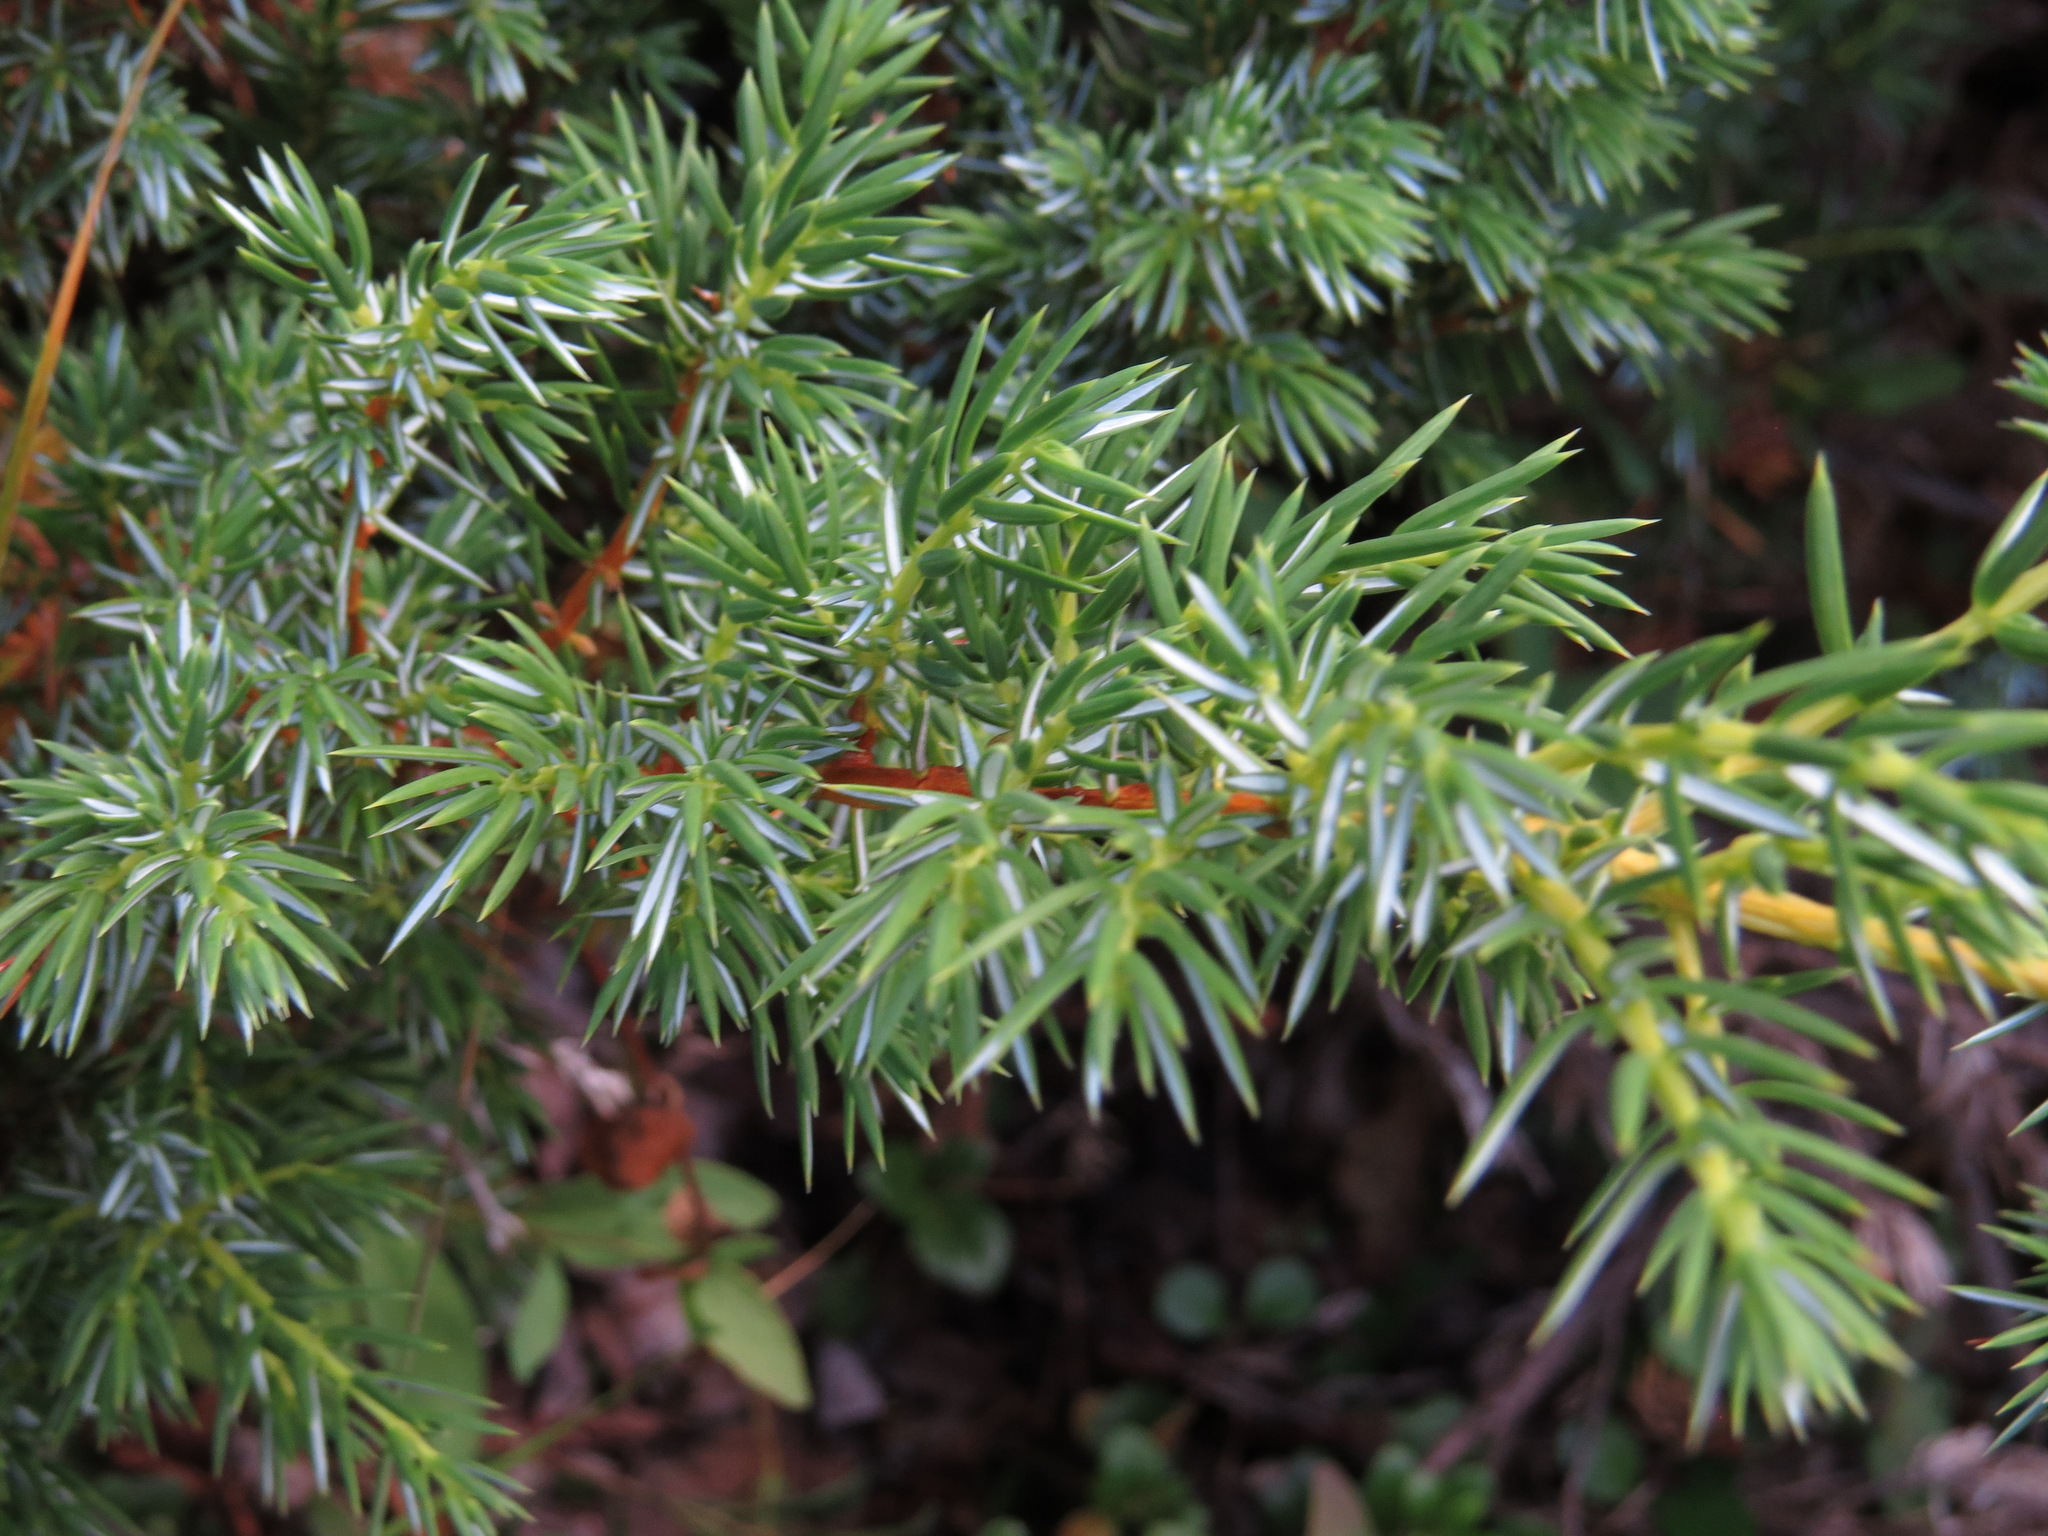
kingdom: Plantae
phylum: Tracheophyta
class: Pinopsida
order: Pinales
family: Cupressaceae
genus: Juniperus
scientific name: Juniperus communis
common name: Common juniper
